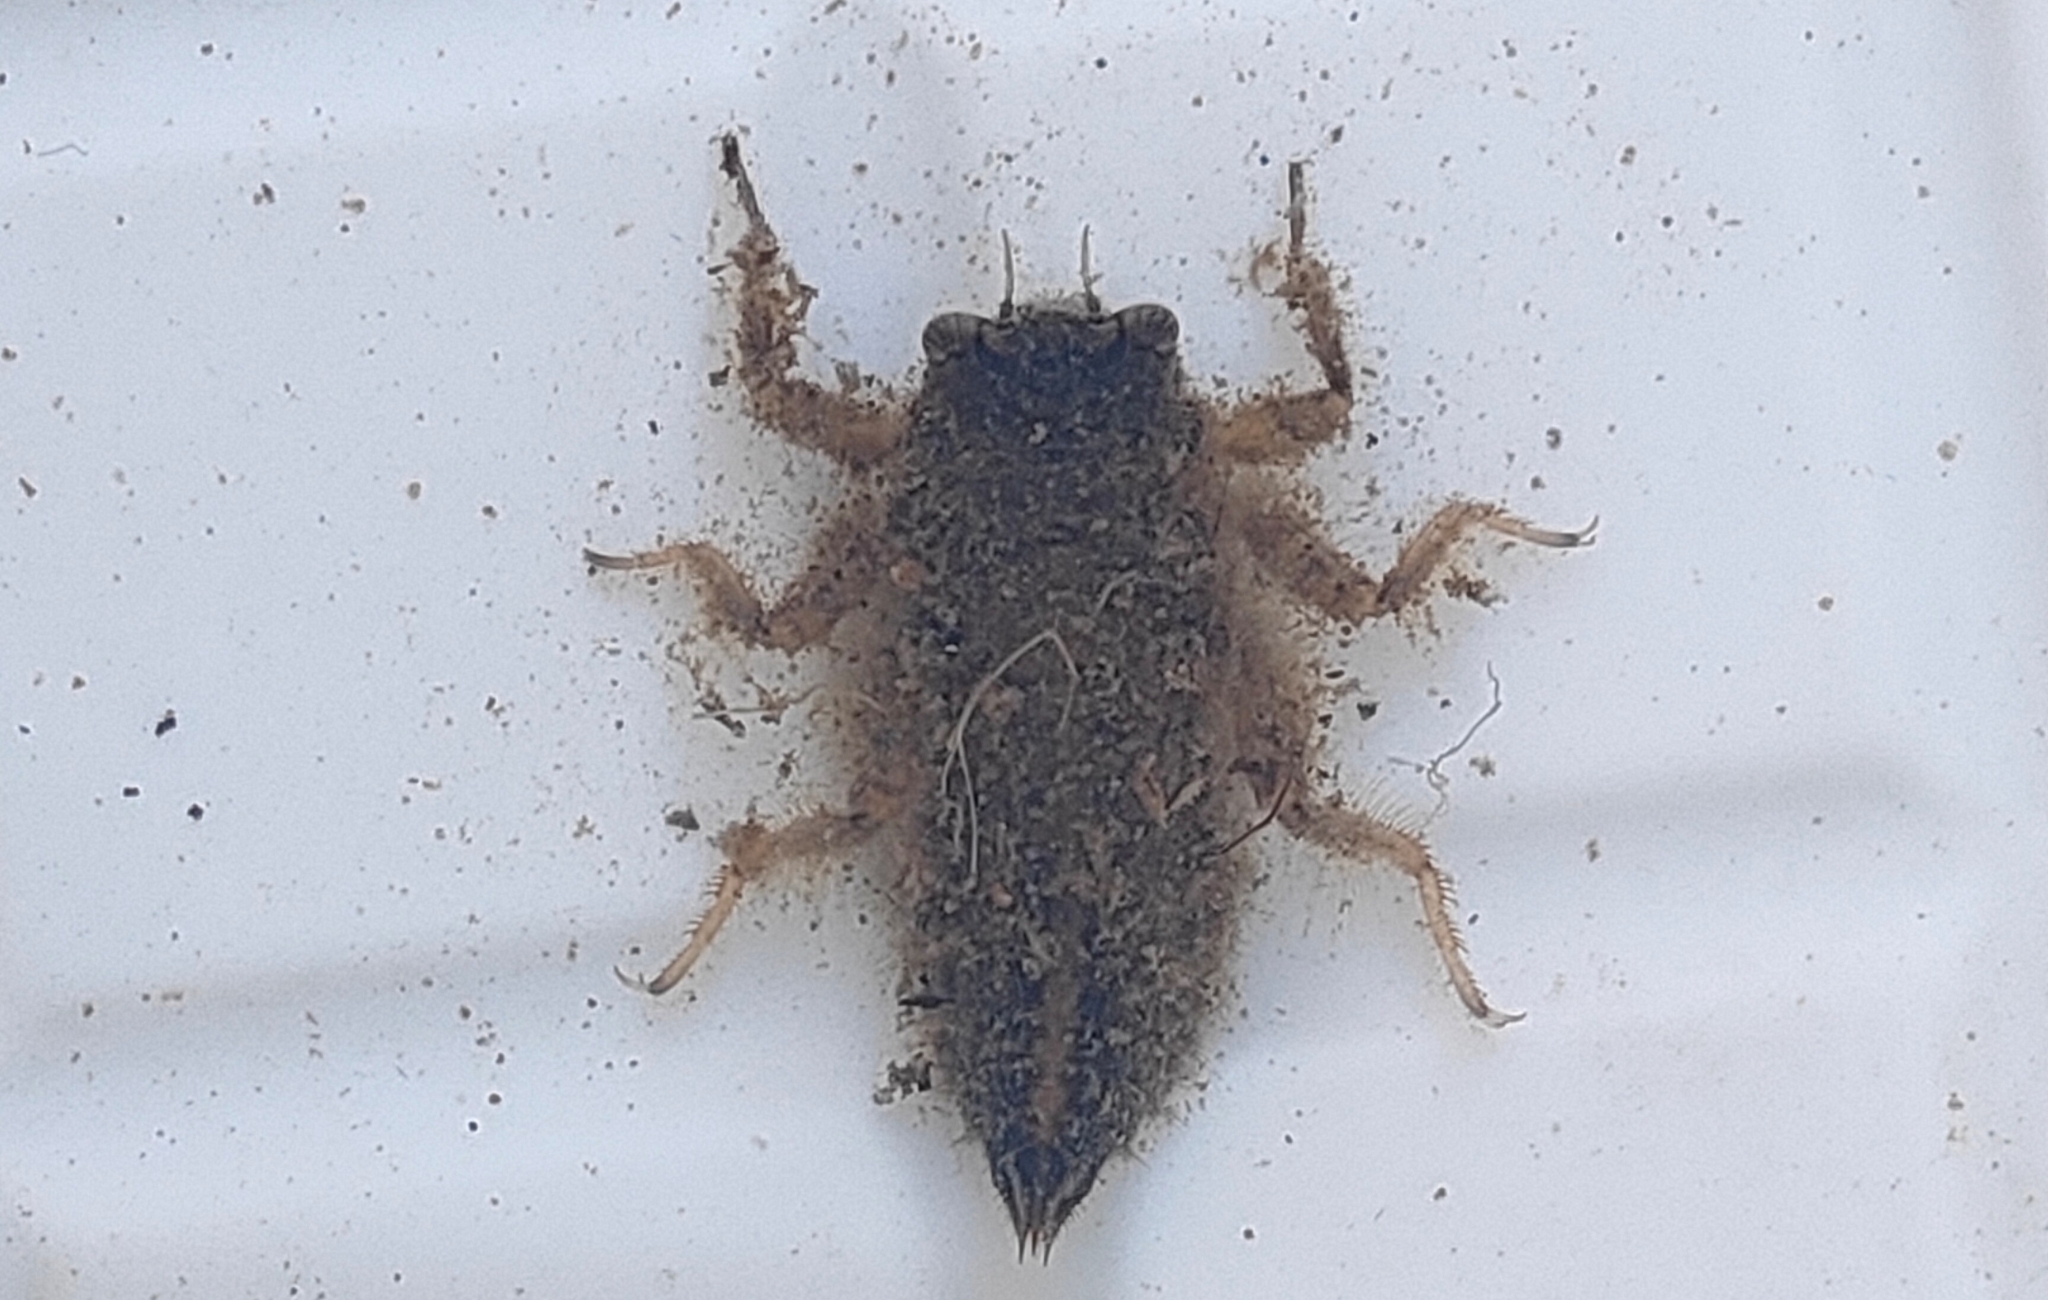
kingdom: Animalia
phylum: Arthropoda
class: Insecta
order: Odonata
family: Cordulegastridae
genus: Anotogaster
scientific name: Anotogaster sieboldii
